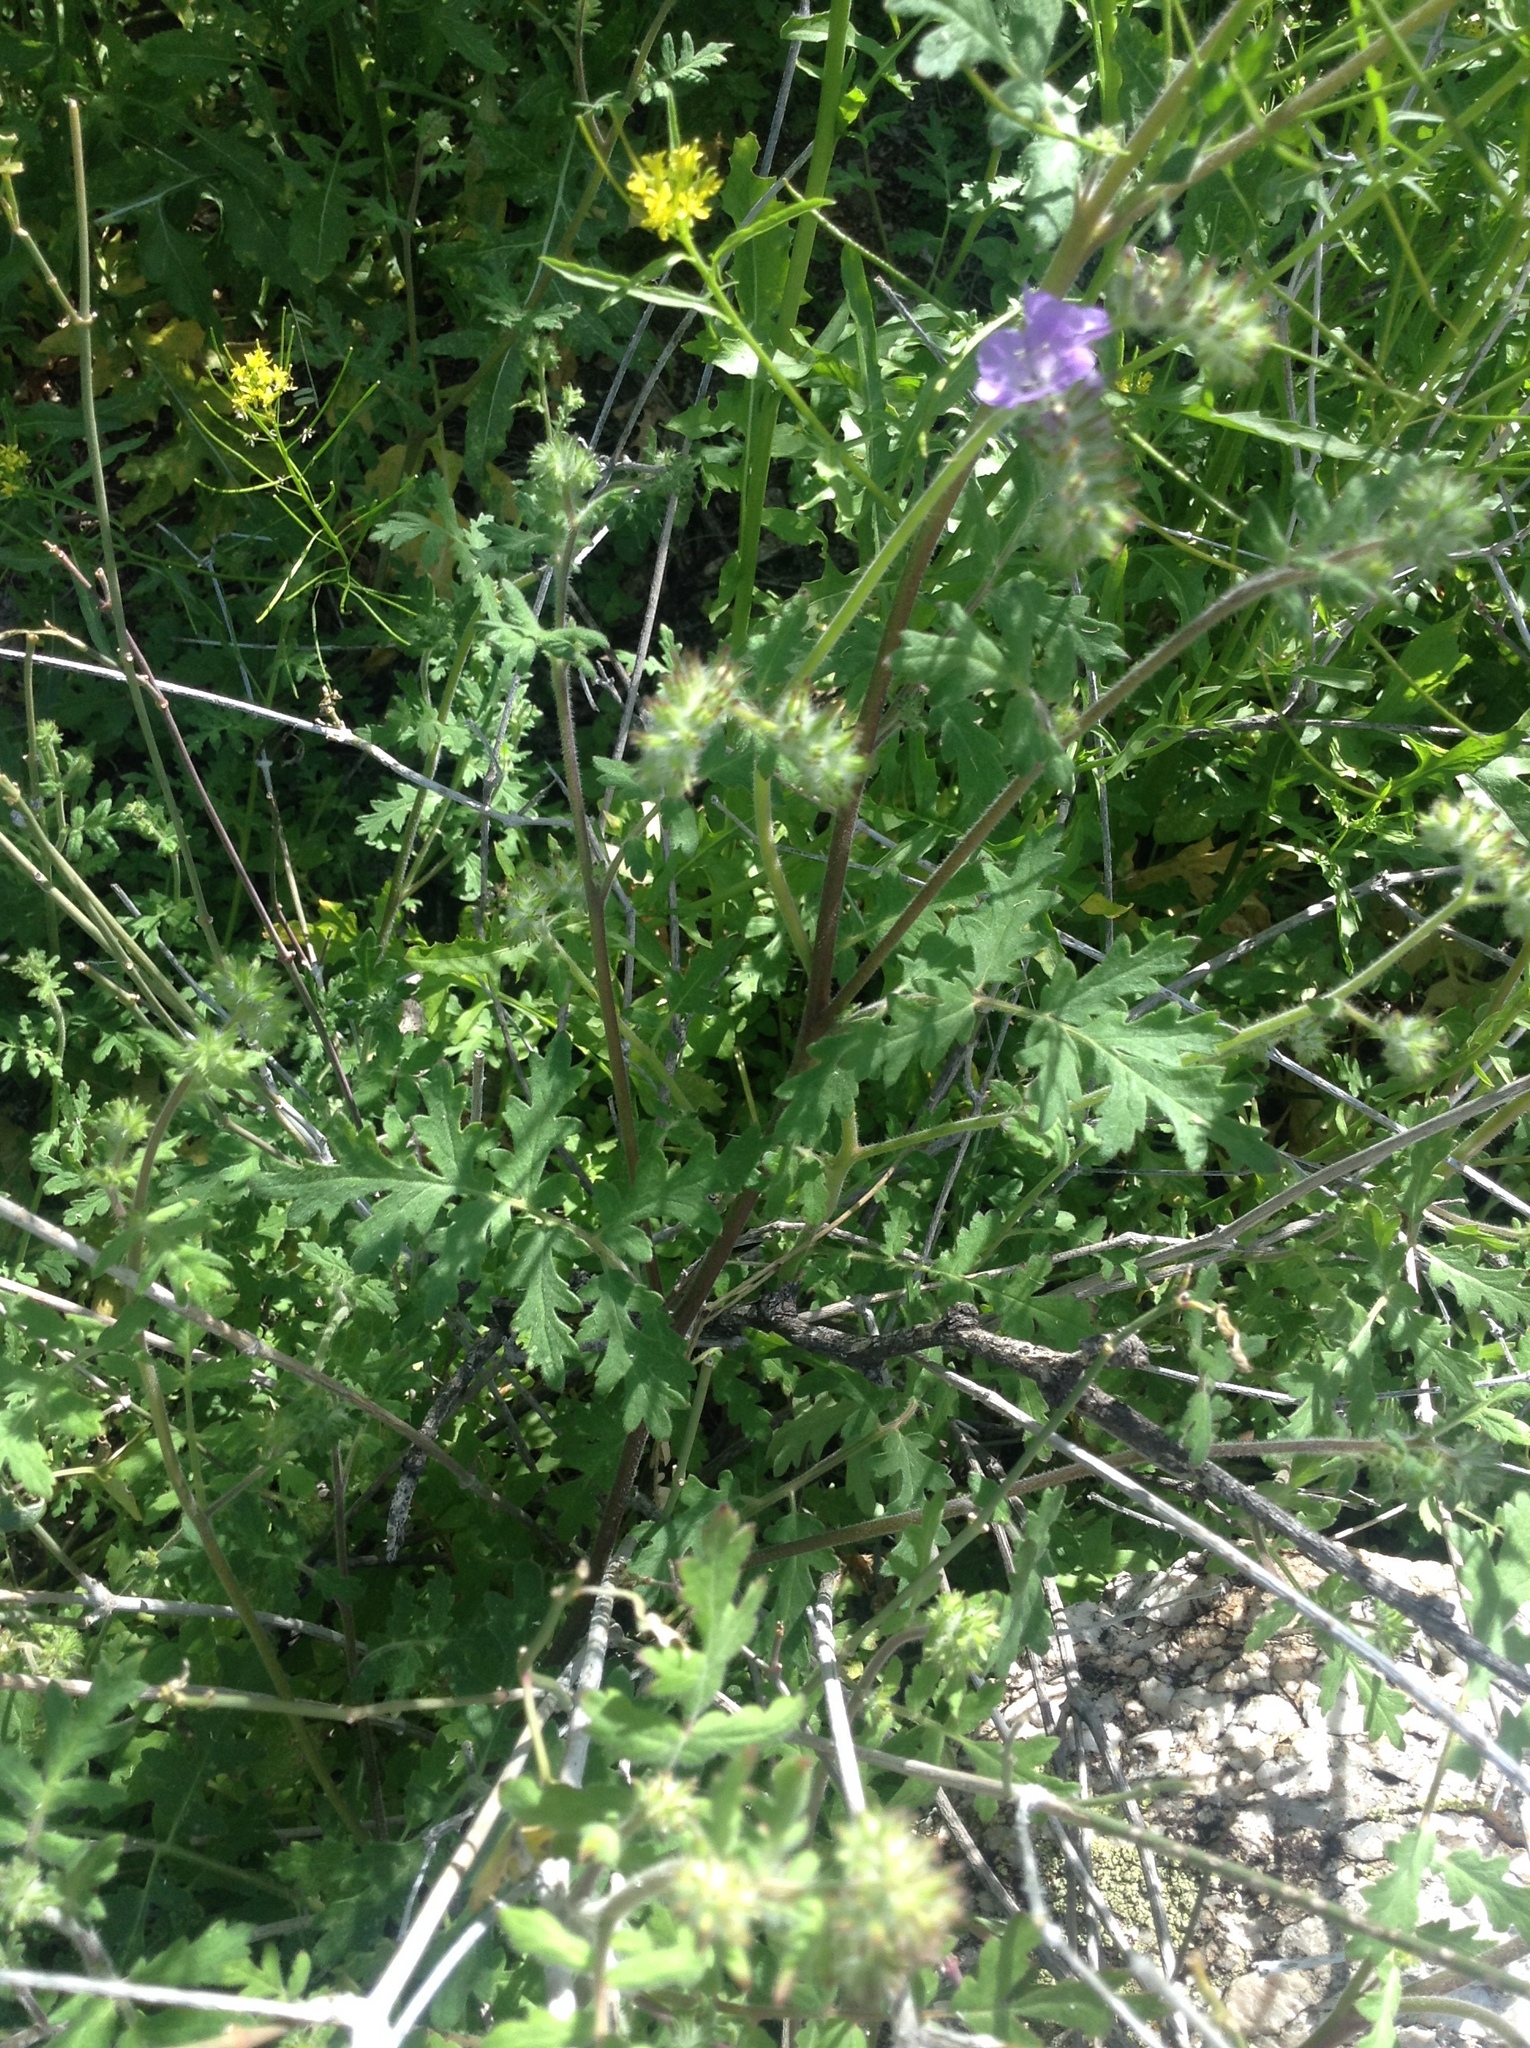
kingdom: Plantae
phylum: Tracheophyta
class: Magnoliopsida
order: Boraginales
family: Hydrophyllaceae
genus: Phacelia
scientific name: Phacelia distans
